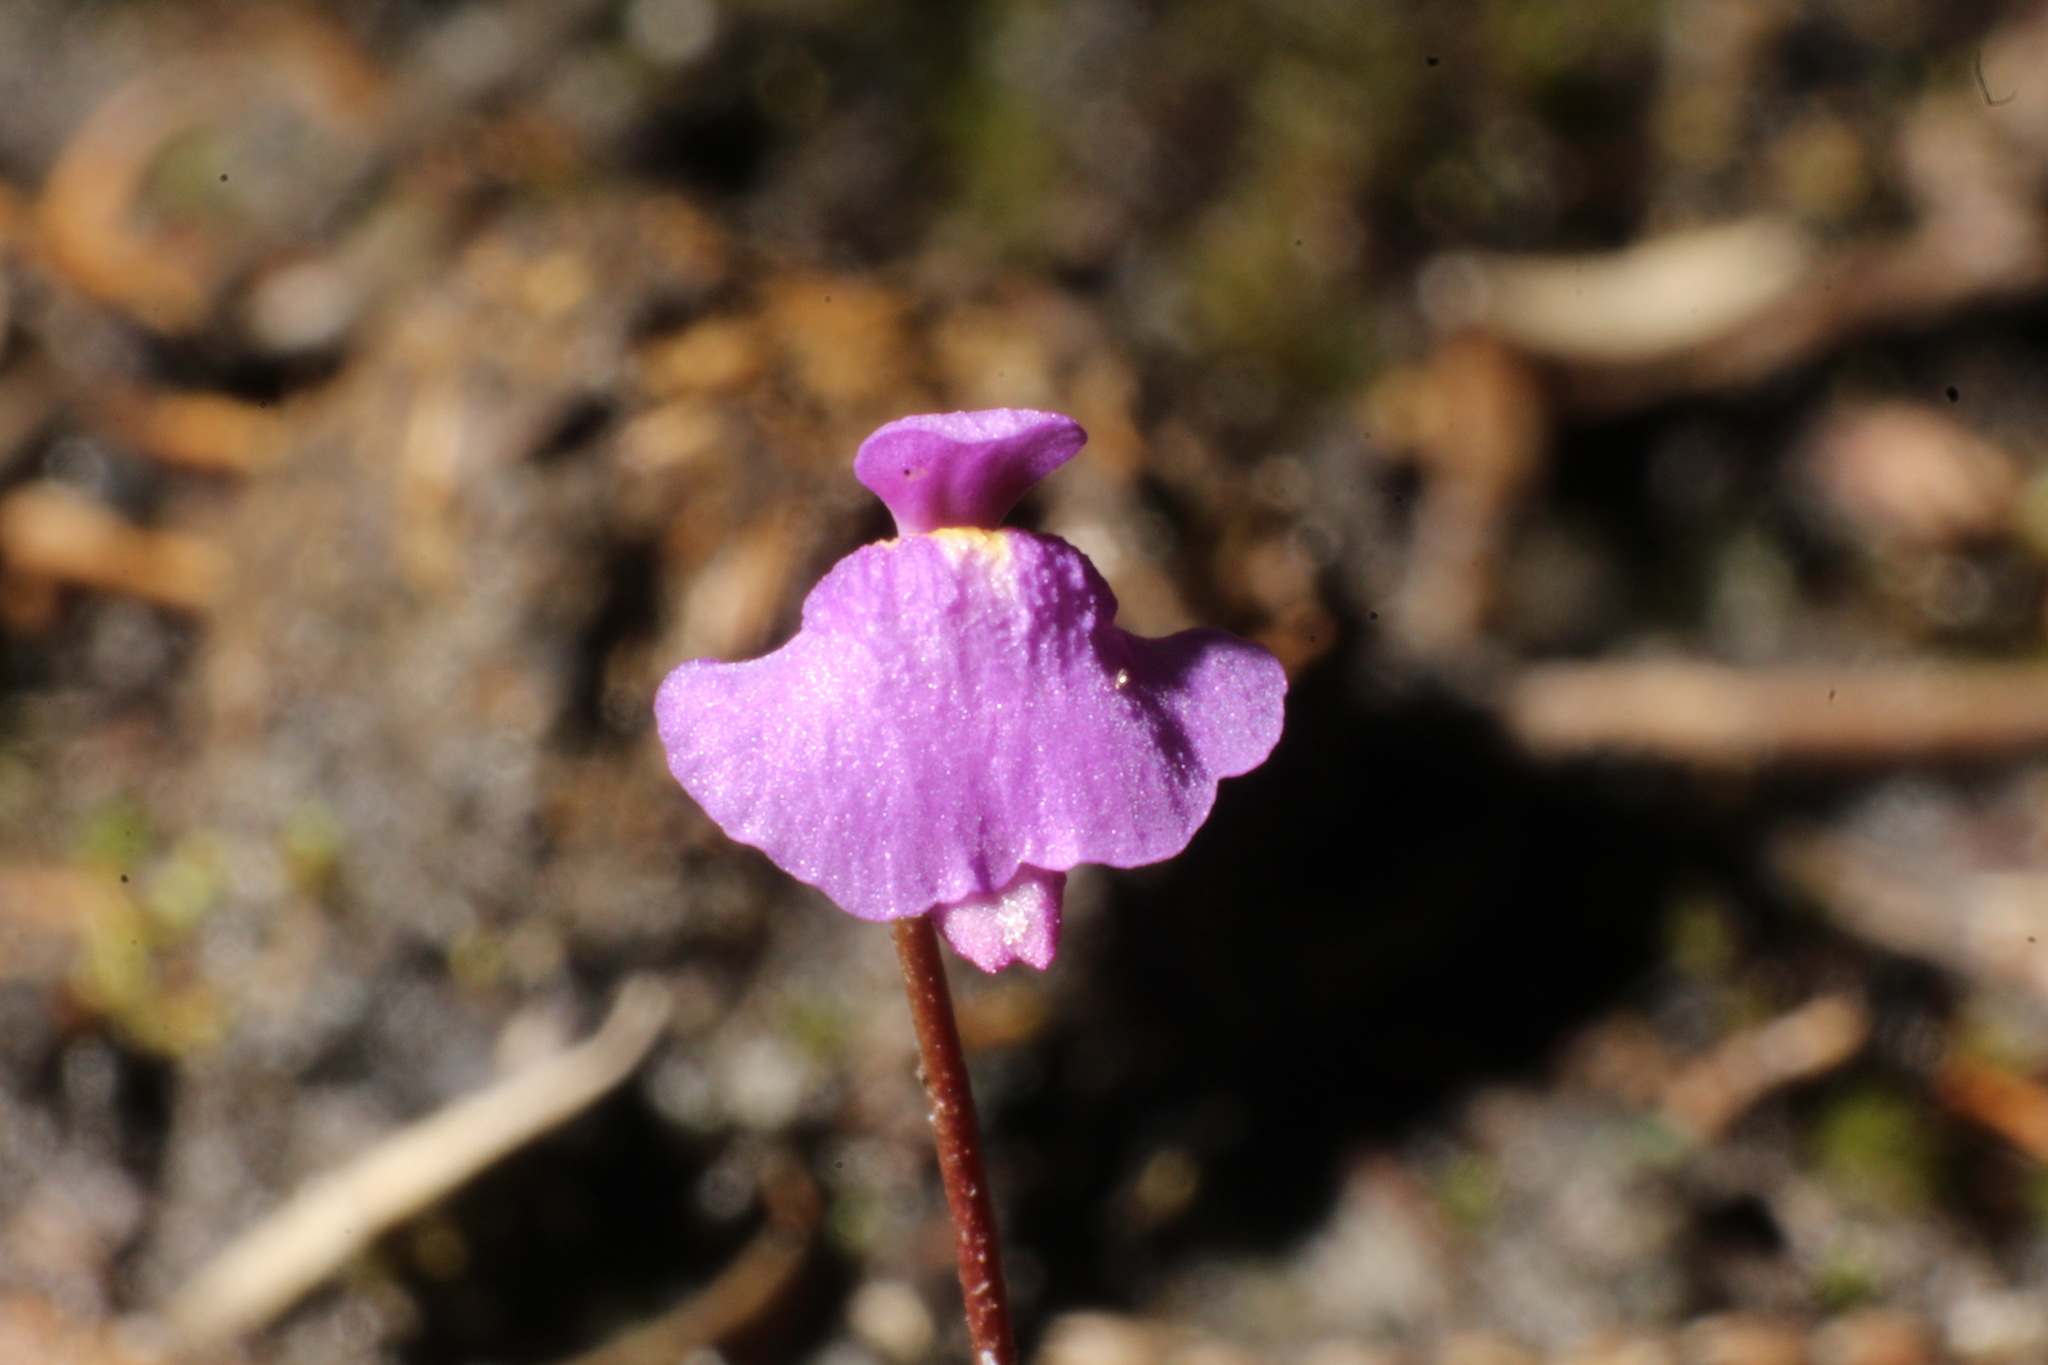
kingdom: Plantae
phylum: Tracheophyta
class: Magnoliopsida
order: Lamiales
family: Lentibulariaceae
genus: Utricularia
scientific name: Utricularia simplex
